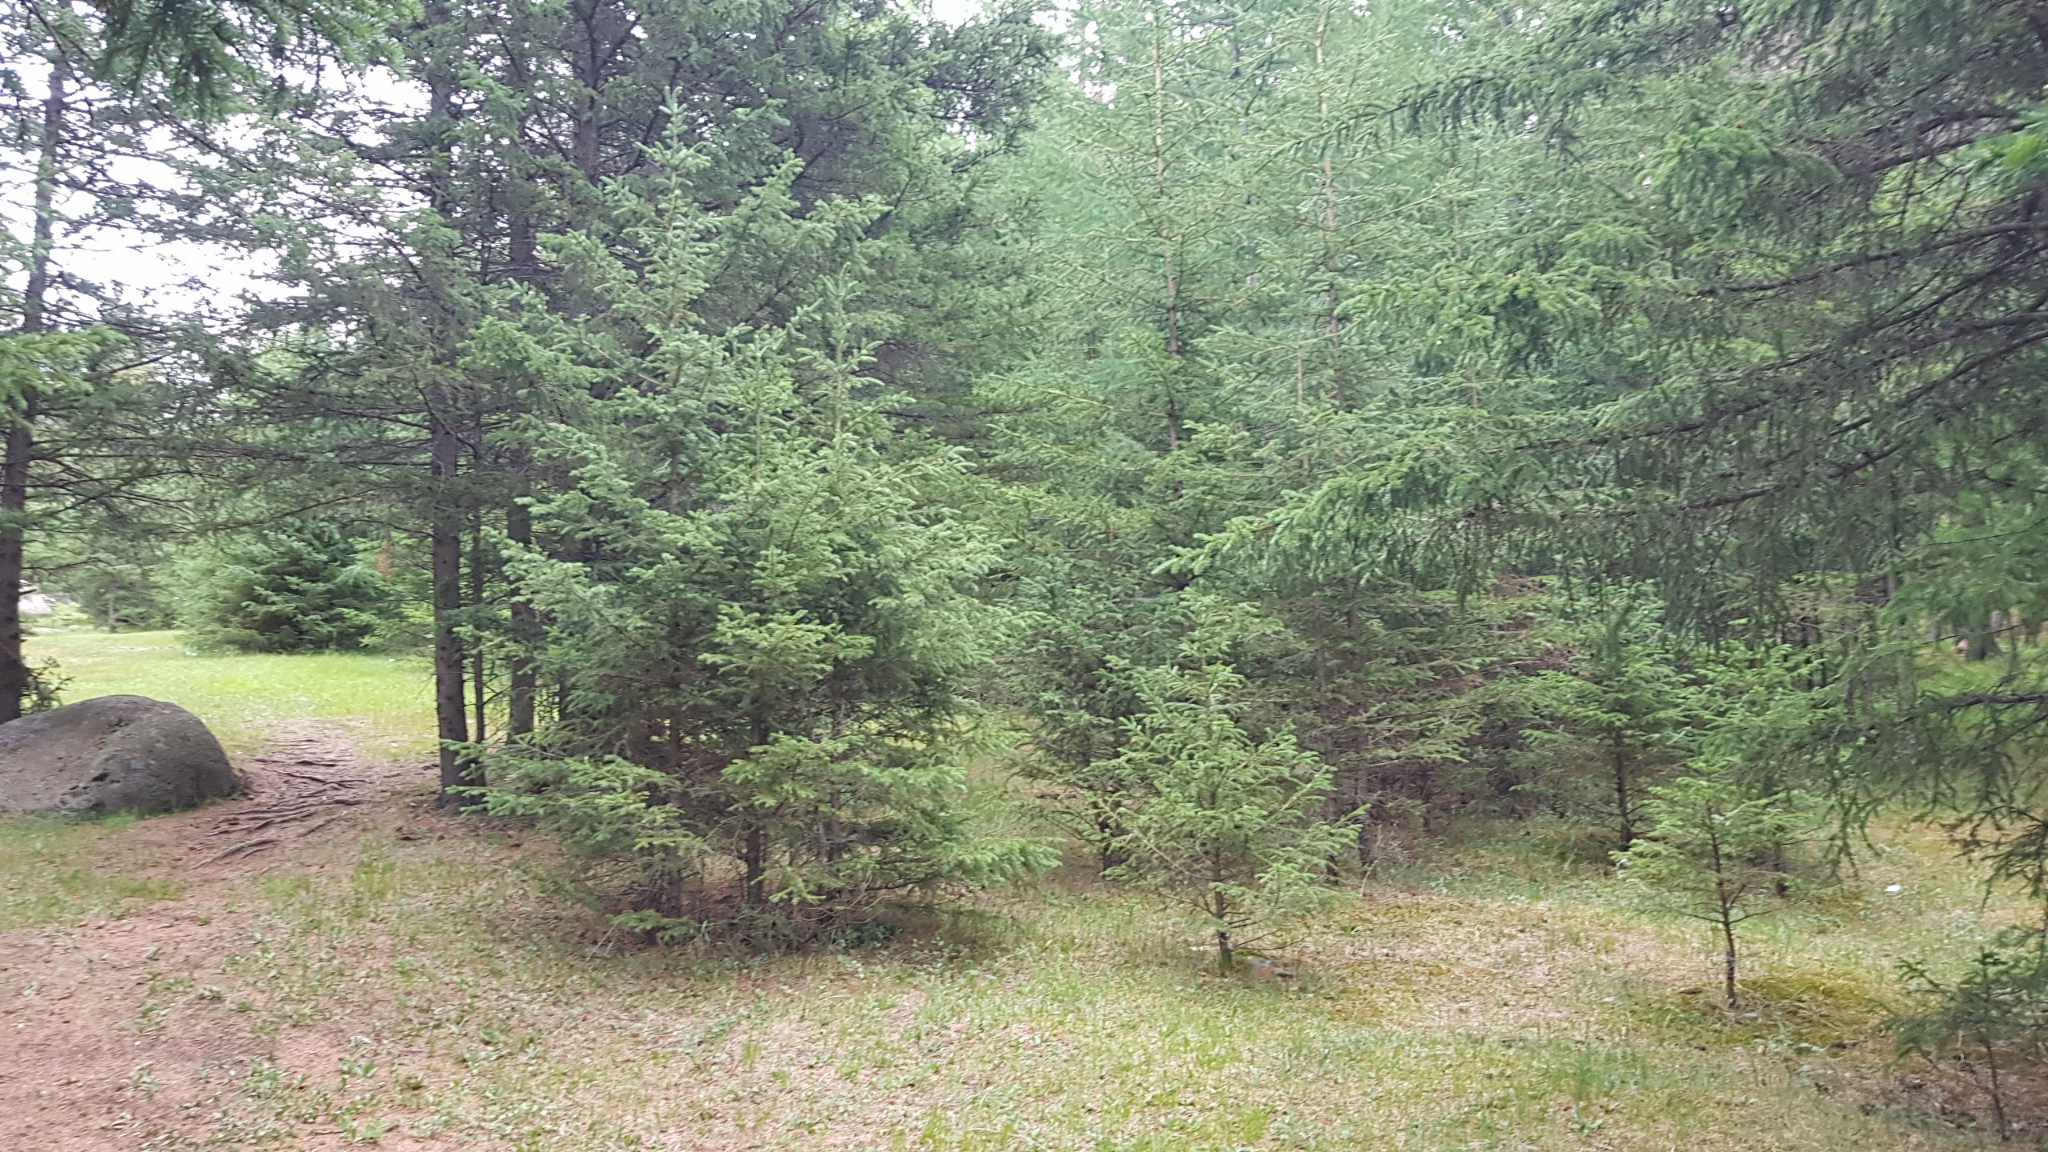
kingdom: Plantae
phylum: Tracheophyta
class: Pinopsida
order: Pinales
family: Pinaceae
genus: Picea
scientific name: Picea obovata
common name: Siberian spruce
